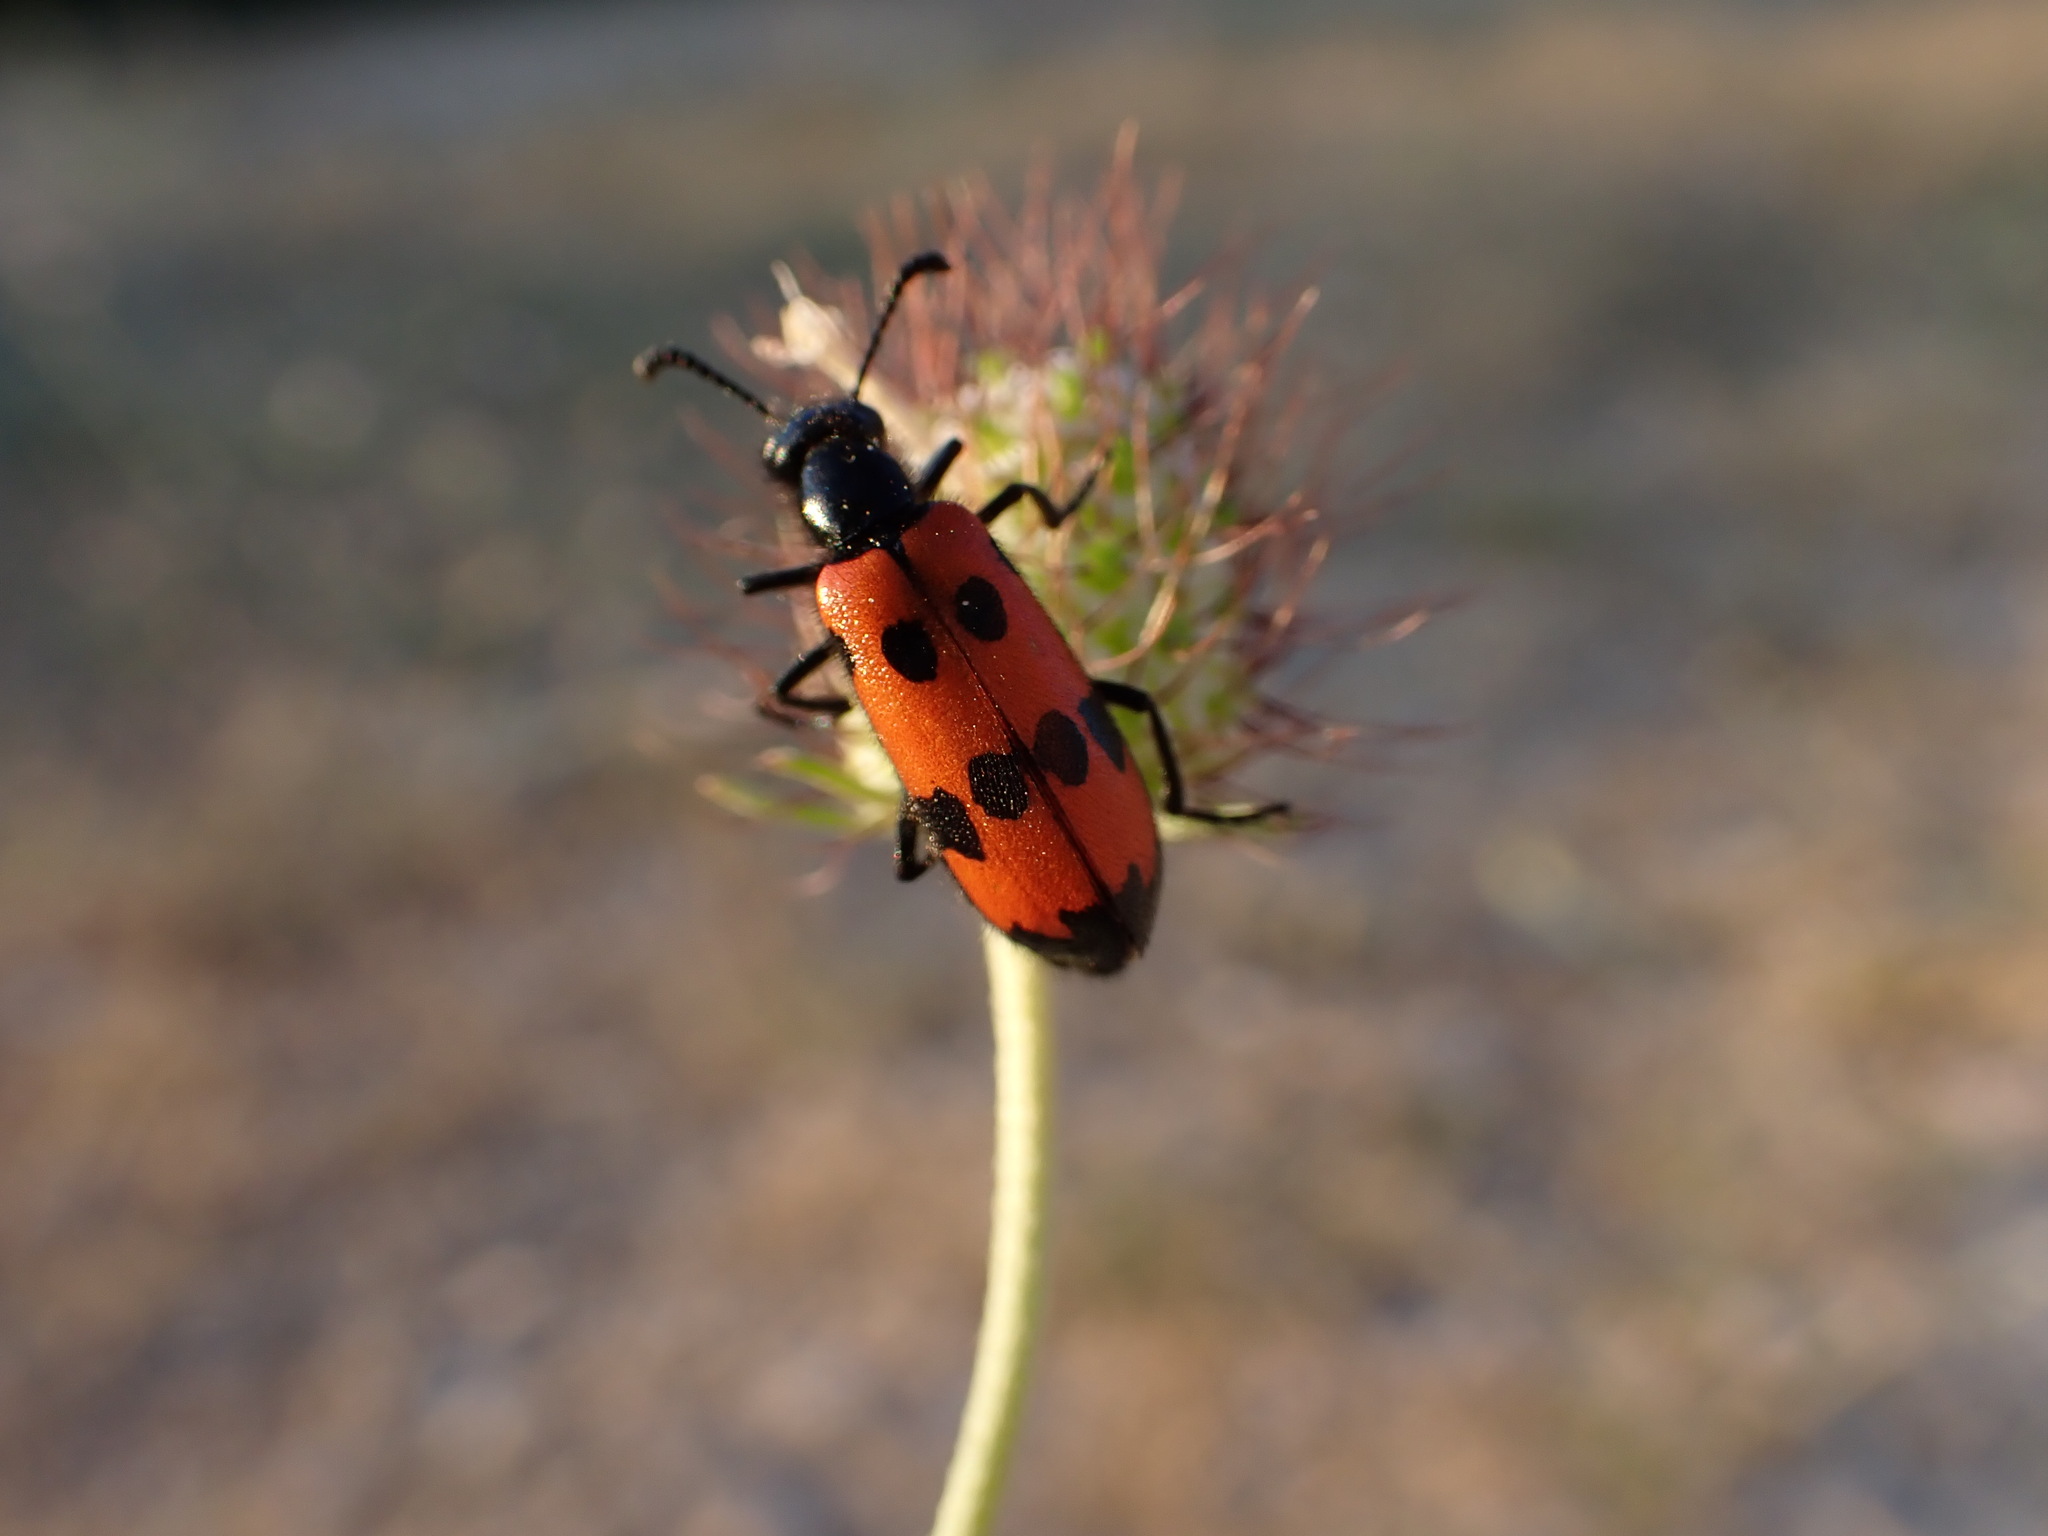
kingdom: Animalia
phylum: Arthropoda
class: Insecta
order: Coleoptera
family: Meloidae
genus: Mylabris
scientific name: Mylabris quadripunctata
